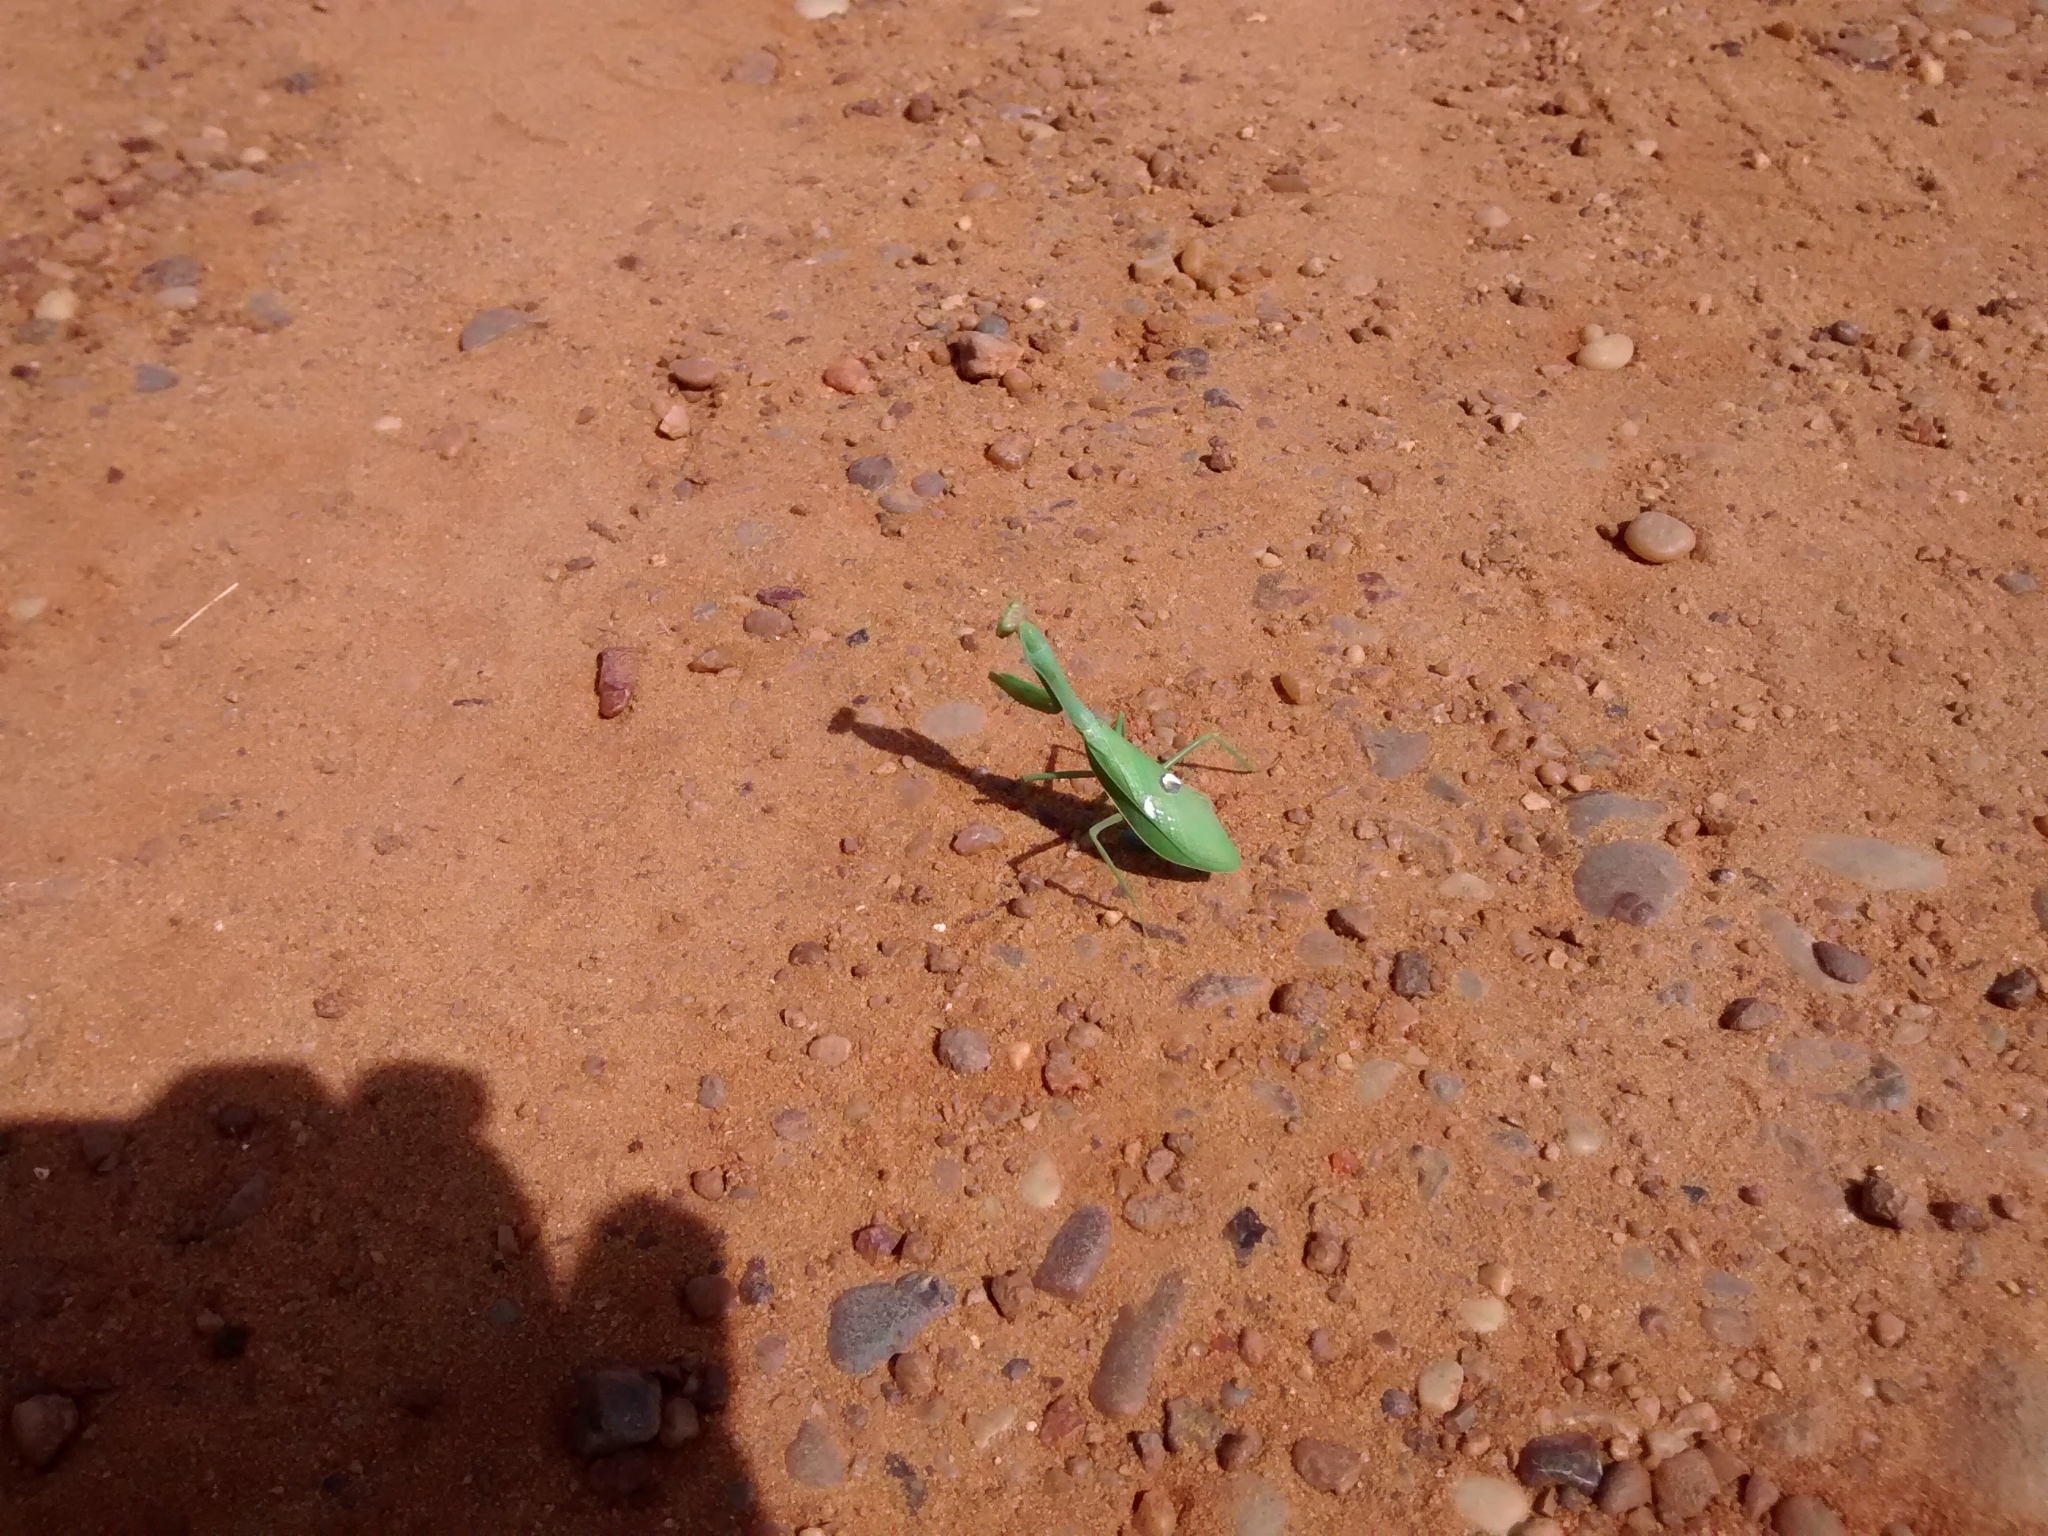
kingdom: Animalia
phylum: Arthropoda
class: Insecta
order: Mantodea
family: Mantidae
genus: Stagmatoptera
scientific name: Stagmatoptera hyaloptera
